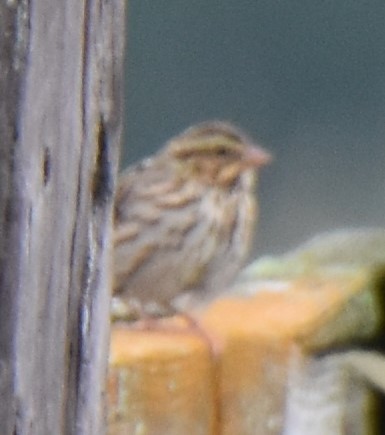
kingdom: Animalia
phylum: Chordata
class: Aves
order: Passeriformes
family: Passerellidae
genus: Passerculus
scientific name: Passerculus sandwichensis
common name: Savannah sparrow
